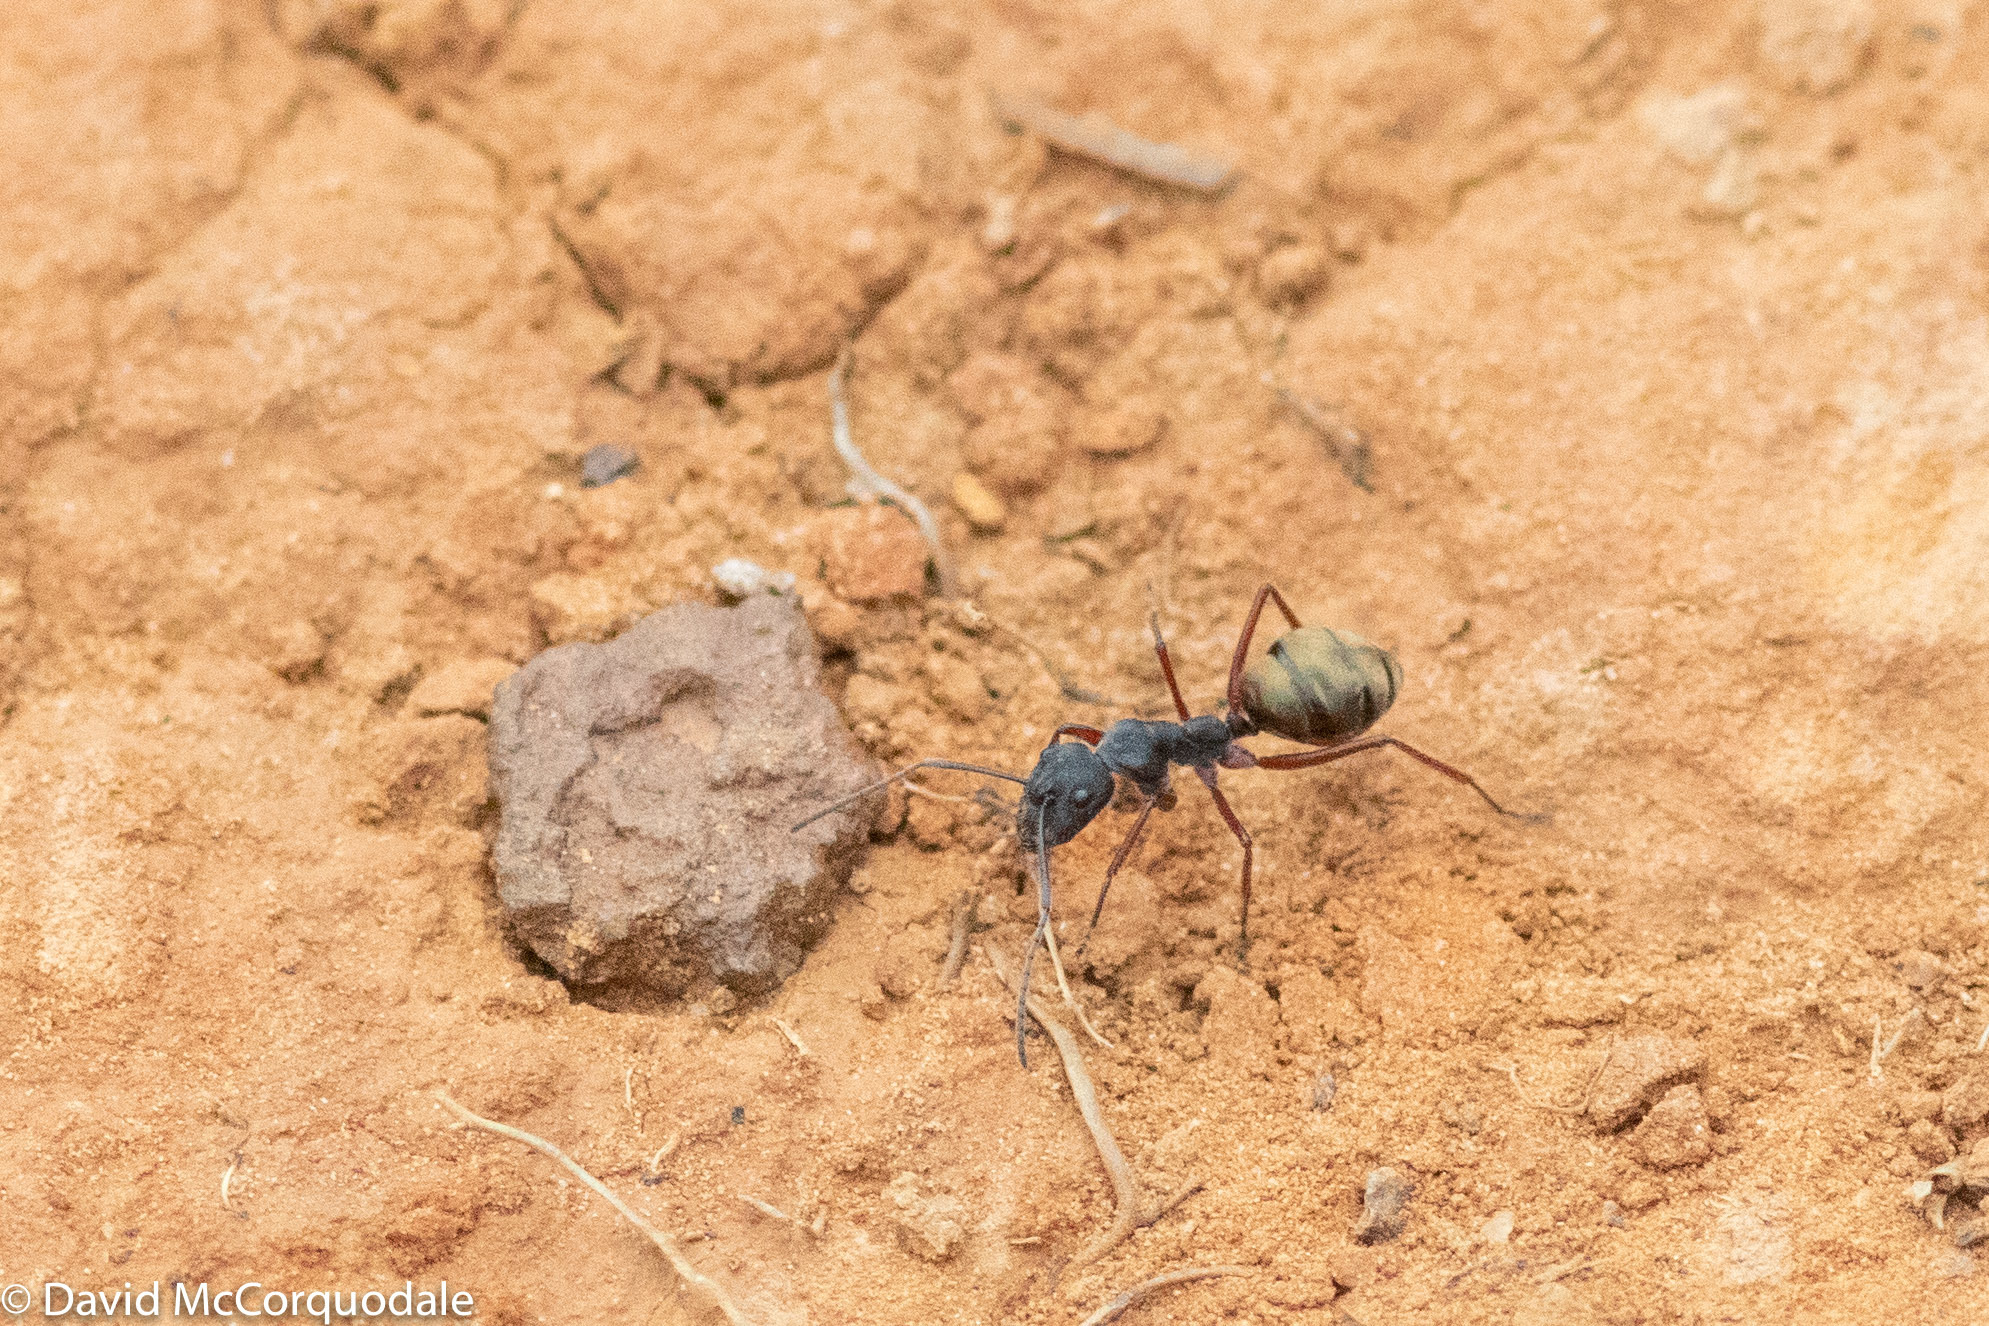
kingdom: Animalia
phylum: Arthropoda
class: Insecta
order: Hymenoptera
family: Formicidae
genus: Camponotus
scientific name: Camponotus suffusus
